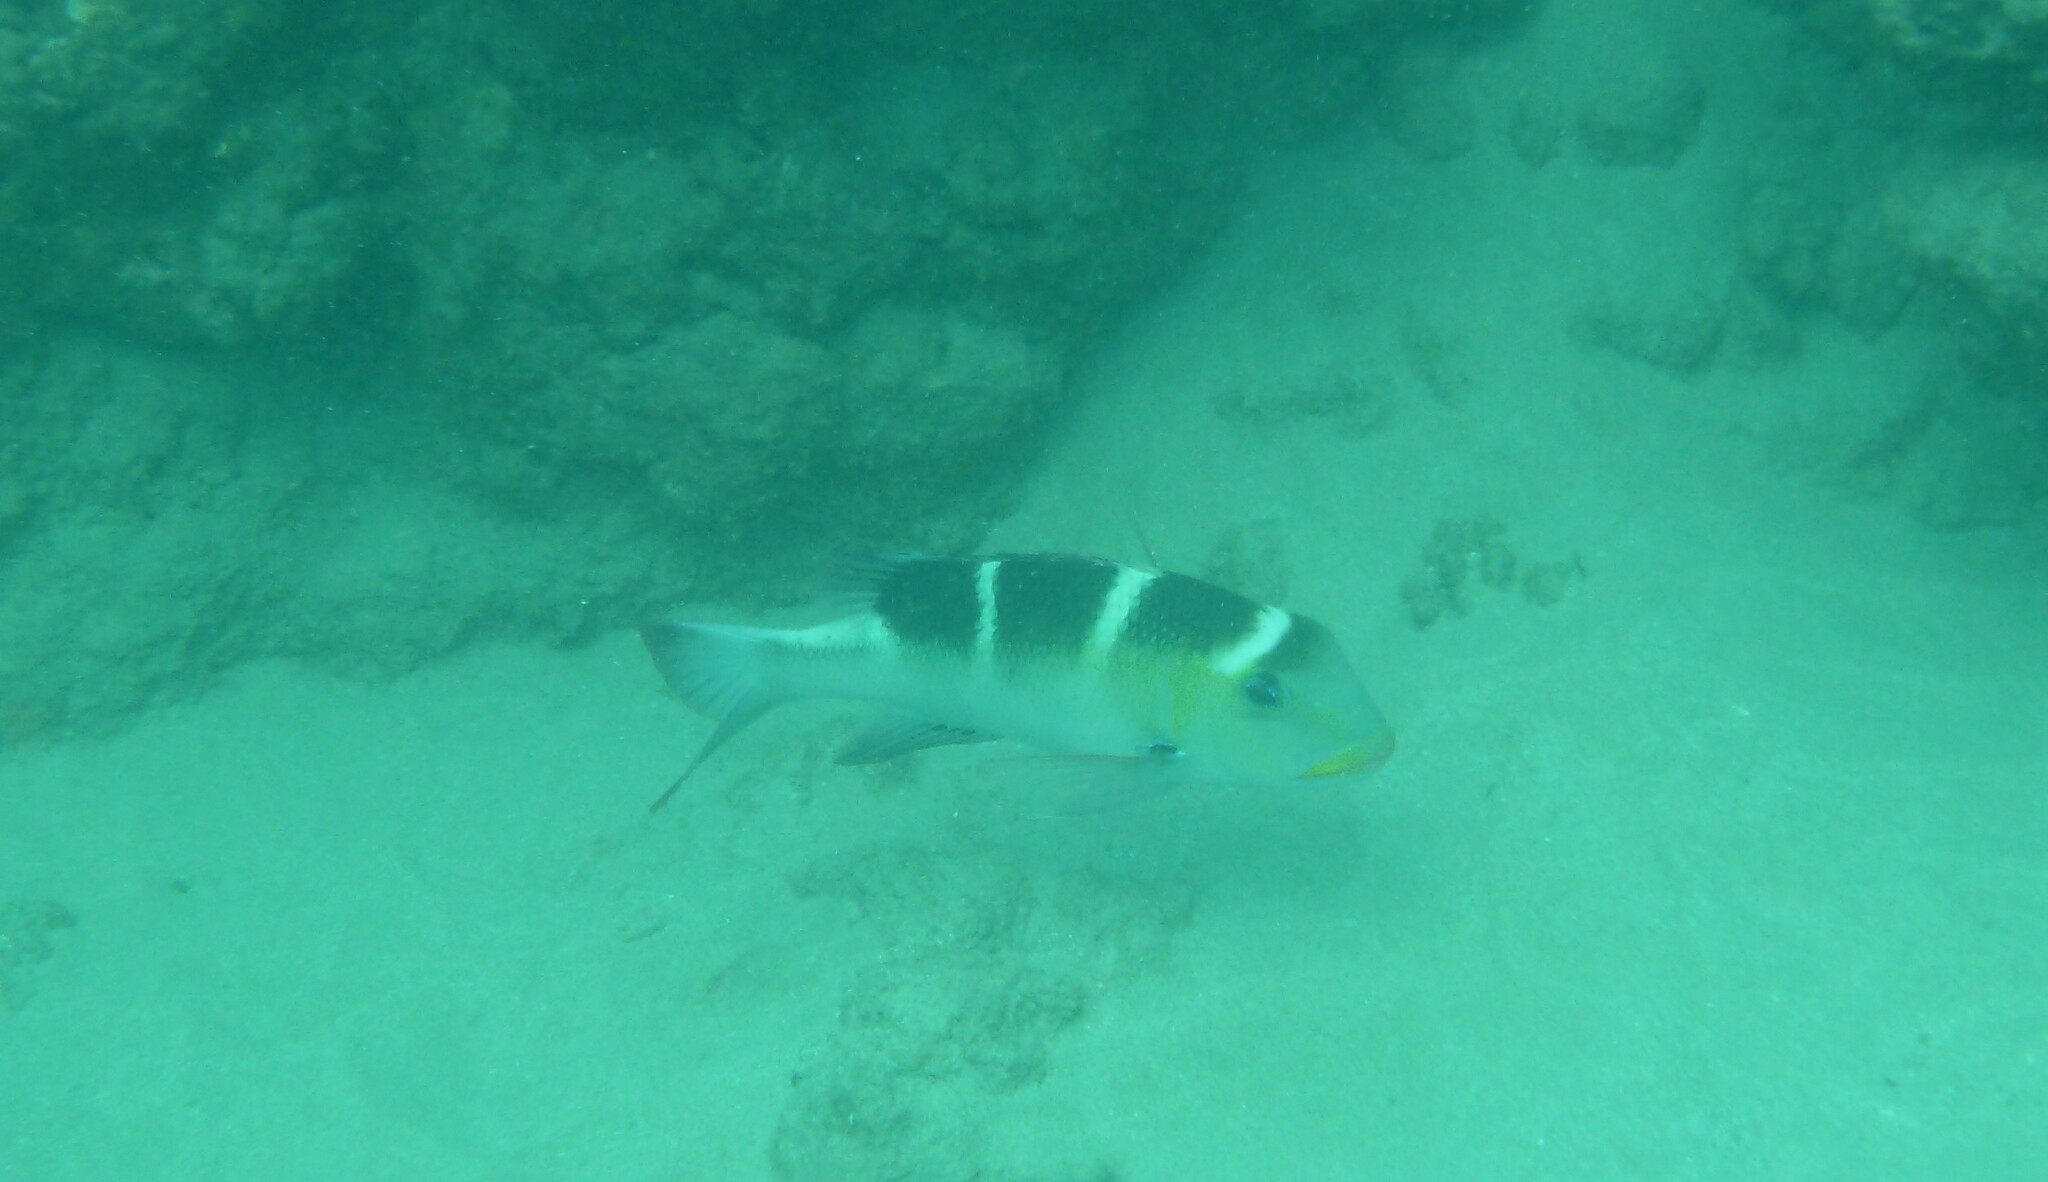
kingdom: Animalia
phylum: Chordata
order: Perciformes
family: Lethrinidae
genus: Monotaxis
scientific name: Monotaxis grandoculis
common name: Bigeye emperor
